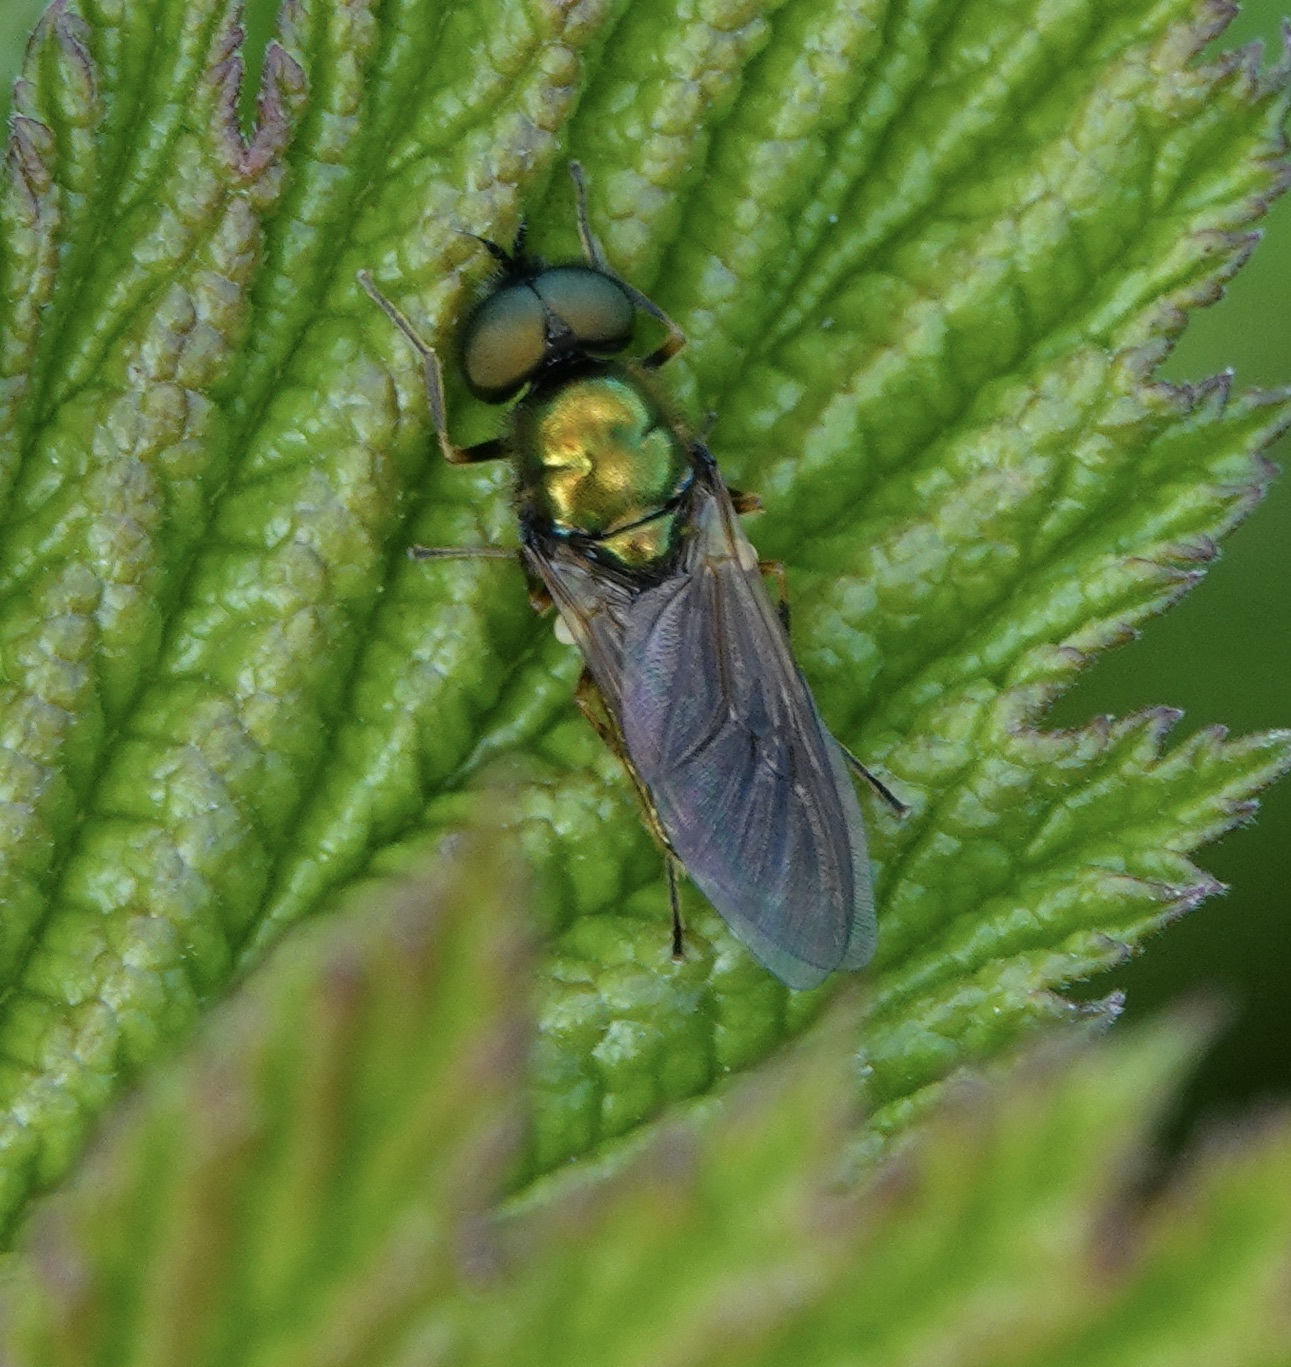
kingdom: Animalia
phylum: Arthropoda
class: Insecta
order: Diptera
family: Stratiomyidae
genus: Chloromyia
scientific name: Chloromyia formosa
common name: Soldier fly
